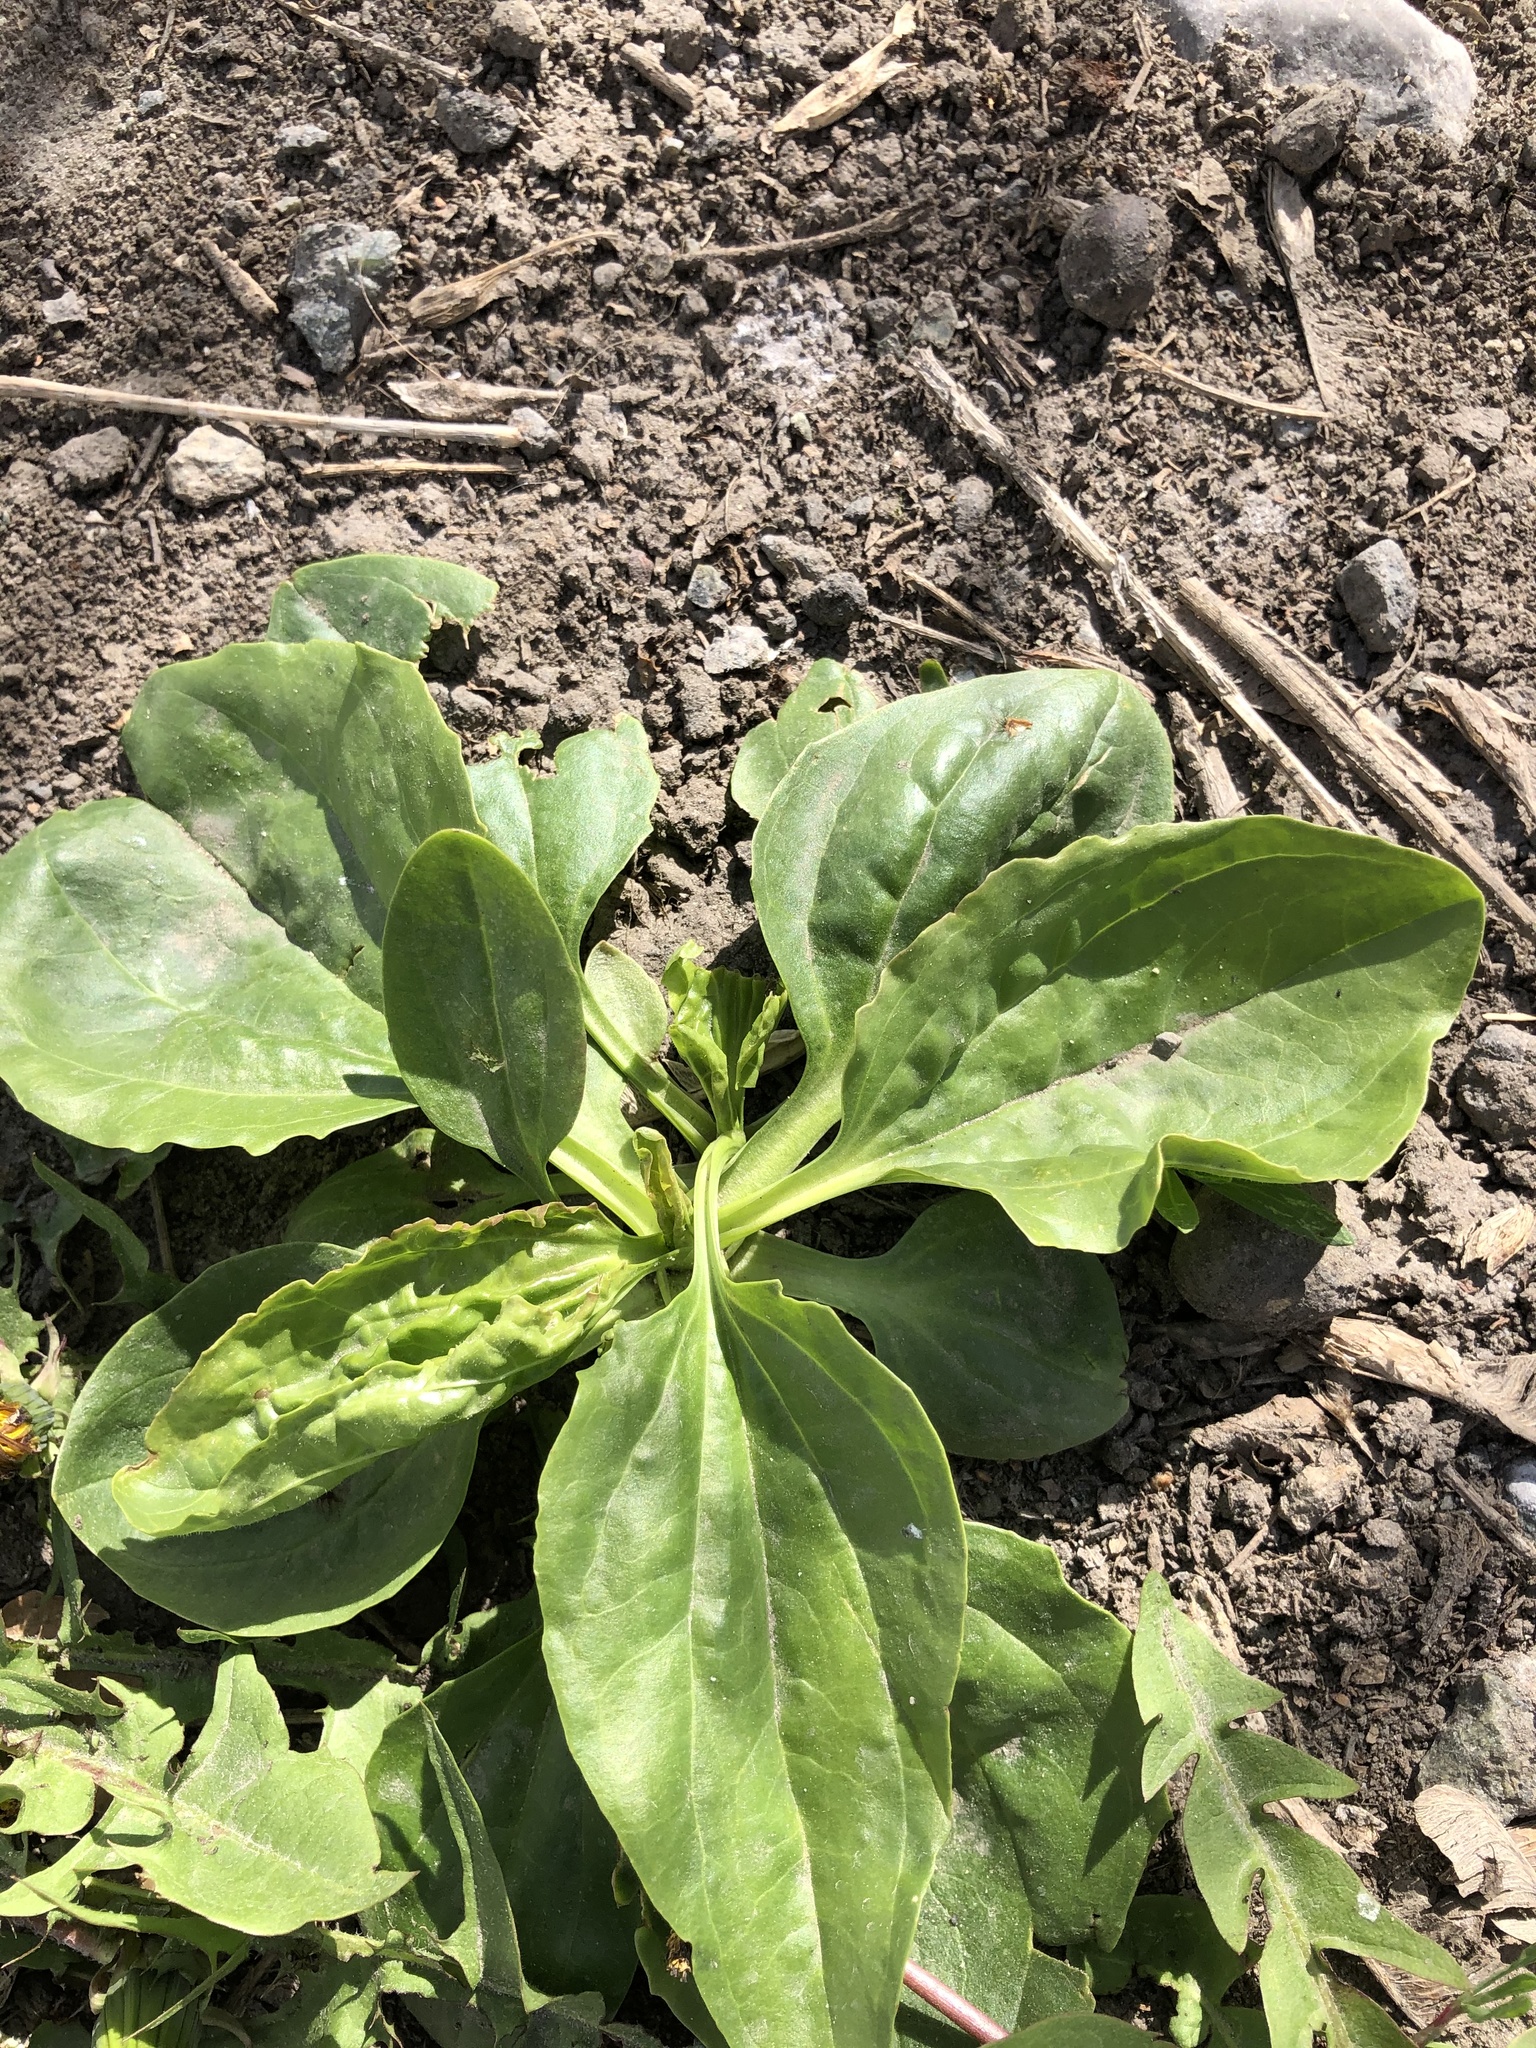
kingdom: Plantae
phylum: Tracheophyta
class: Magnoliopsida
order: Lamiales
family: Plantaginaceae
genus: Plantago
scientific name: Plantago major
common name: Common plantain
